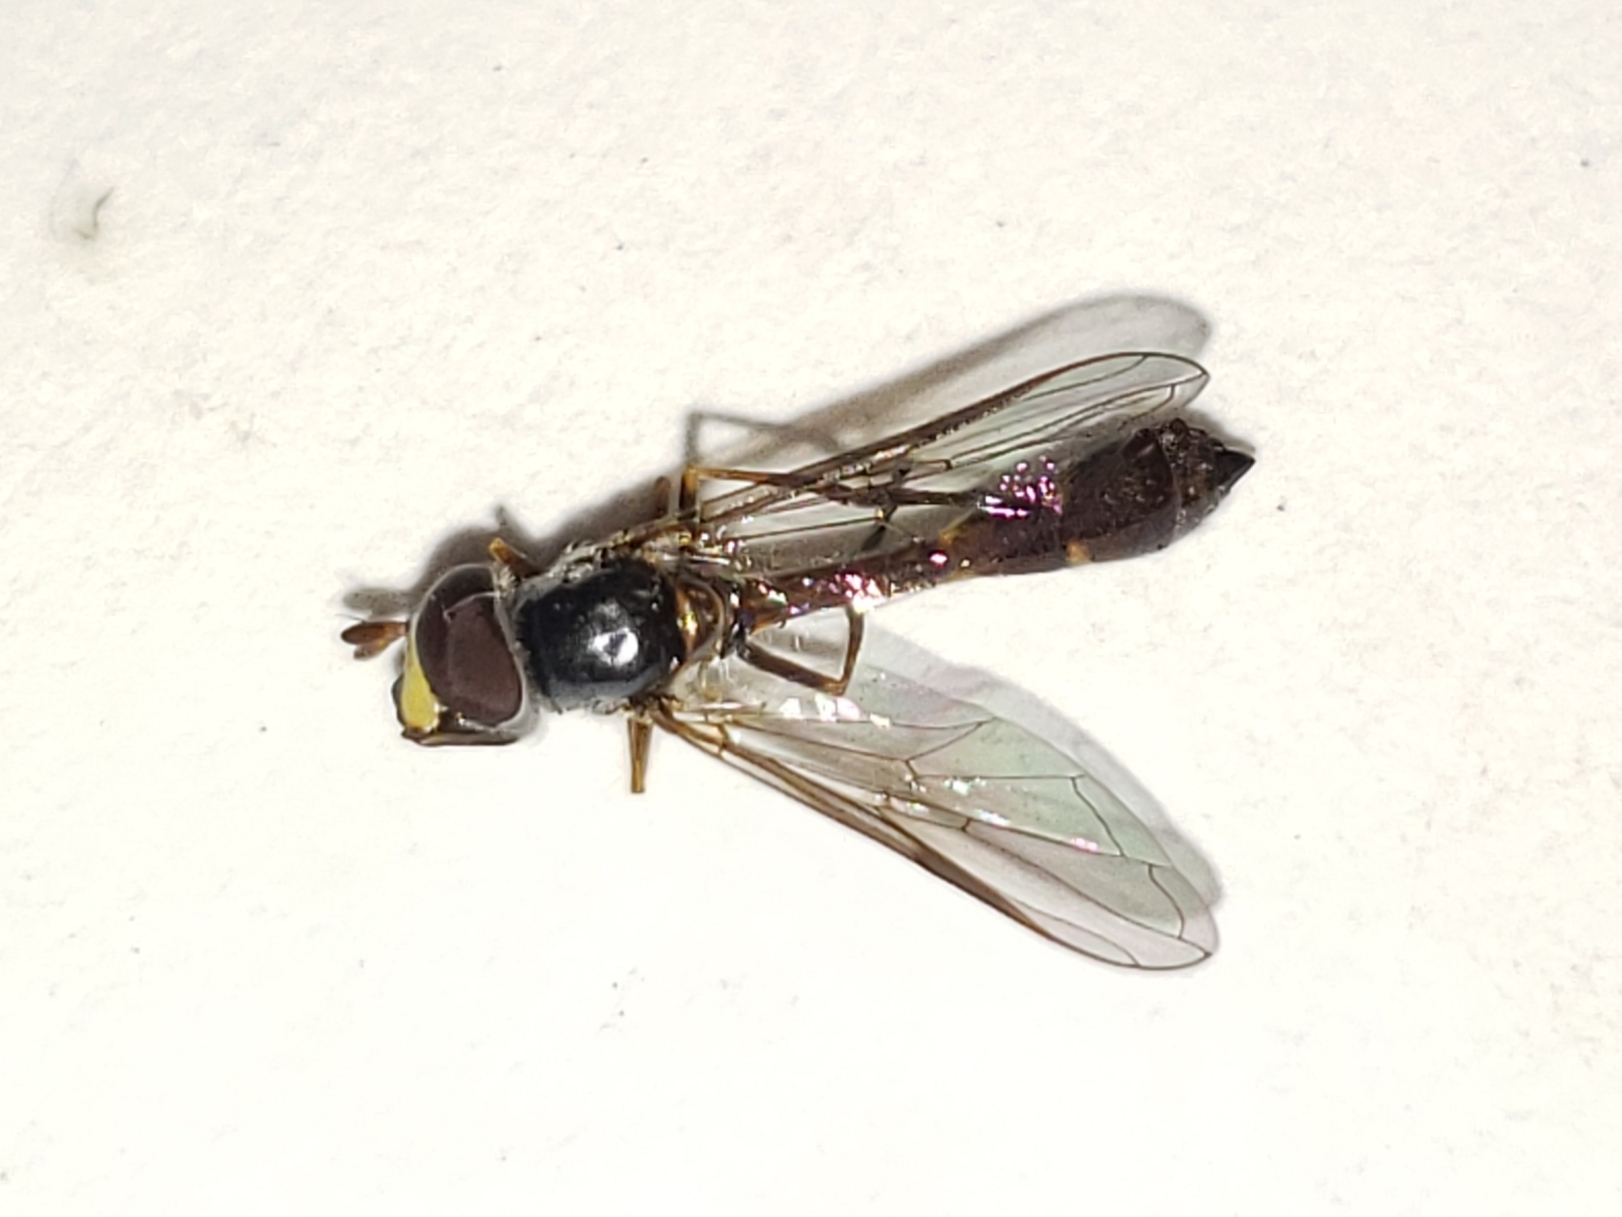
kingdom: Animalia
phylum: Arthropoda
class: Insecta
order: Diptera
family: Syrphidae
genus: Dioprosopa
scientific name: Dioprosopa clavatus
